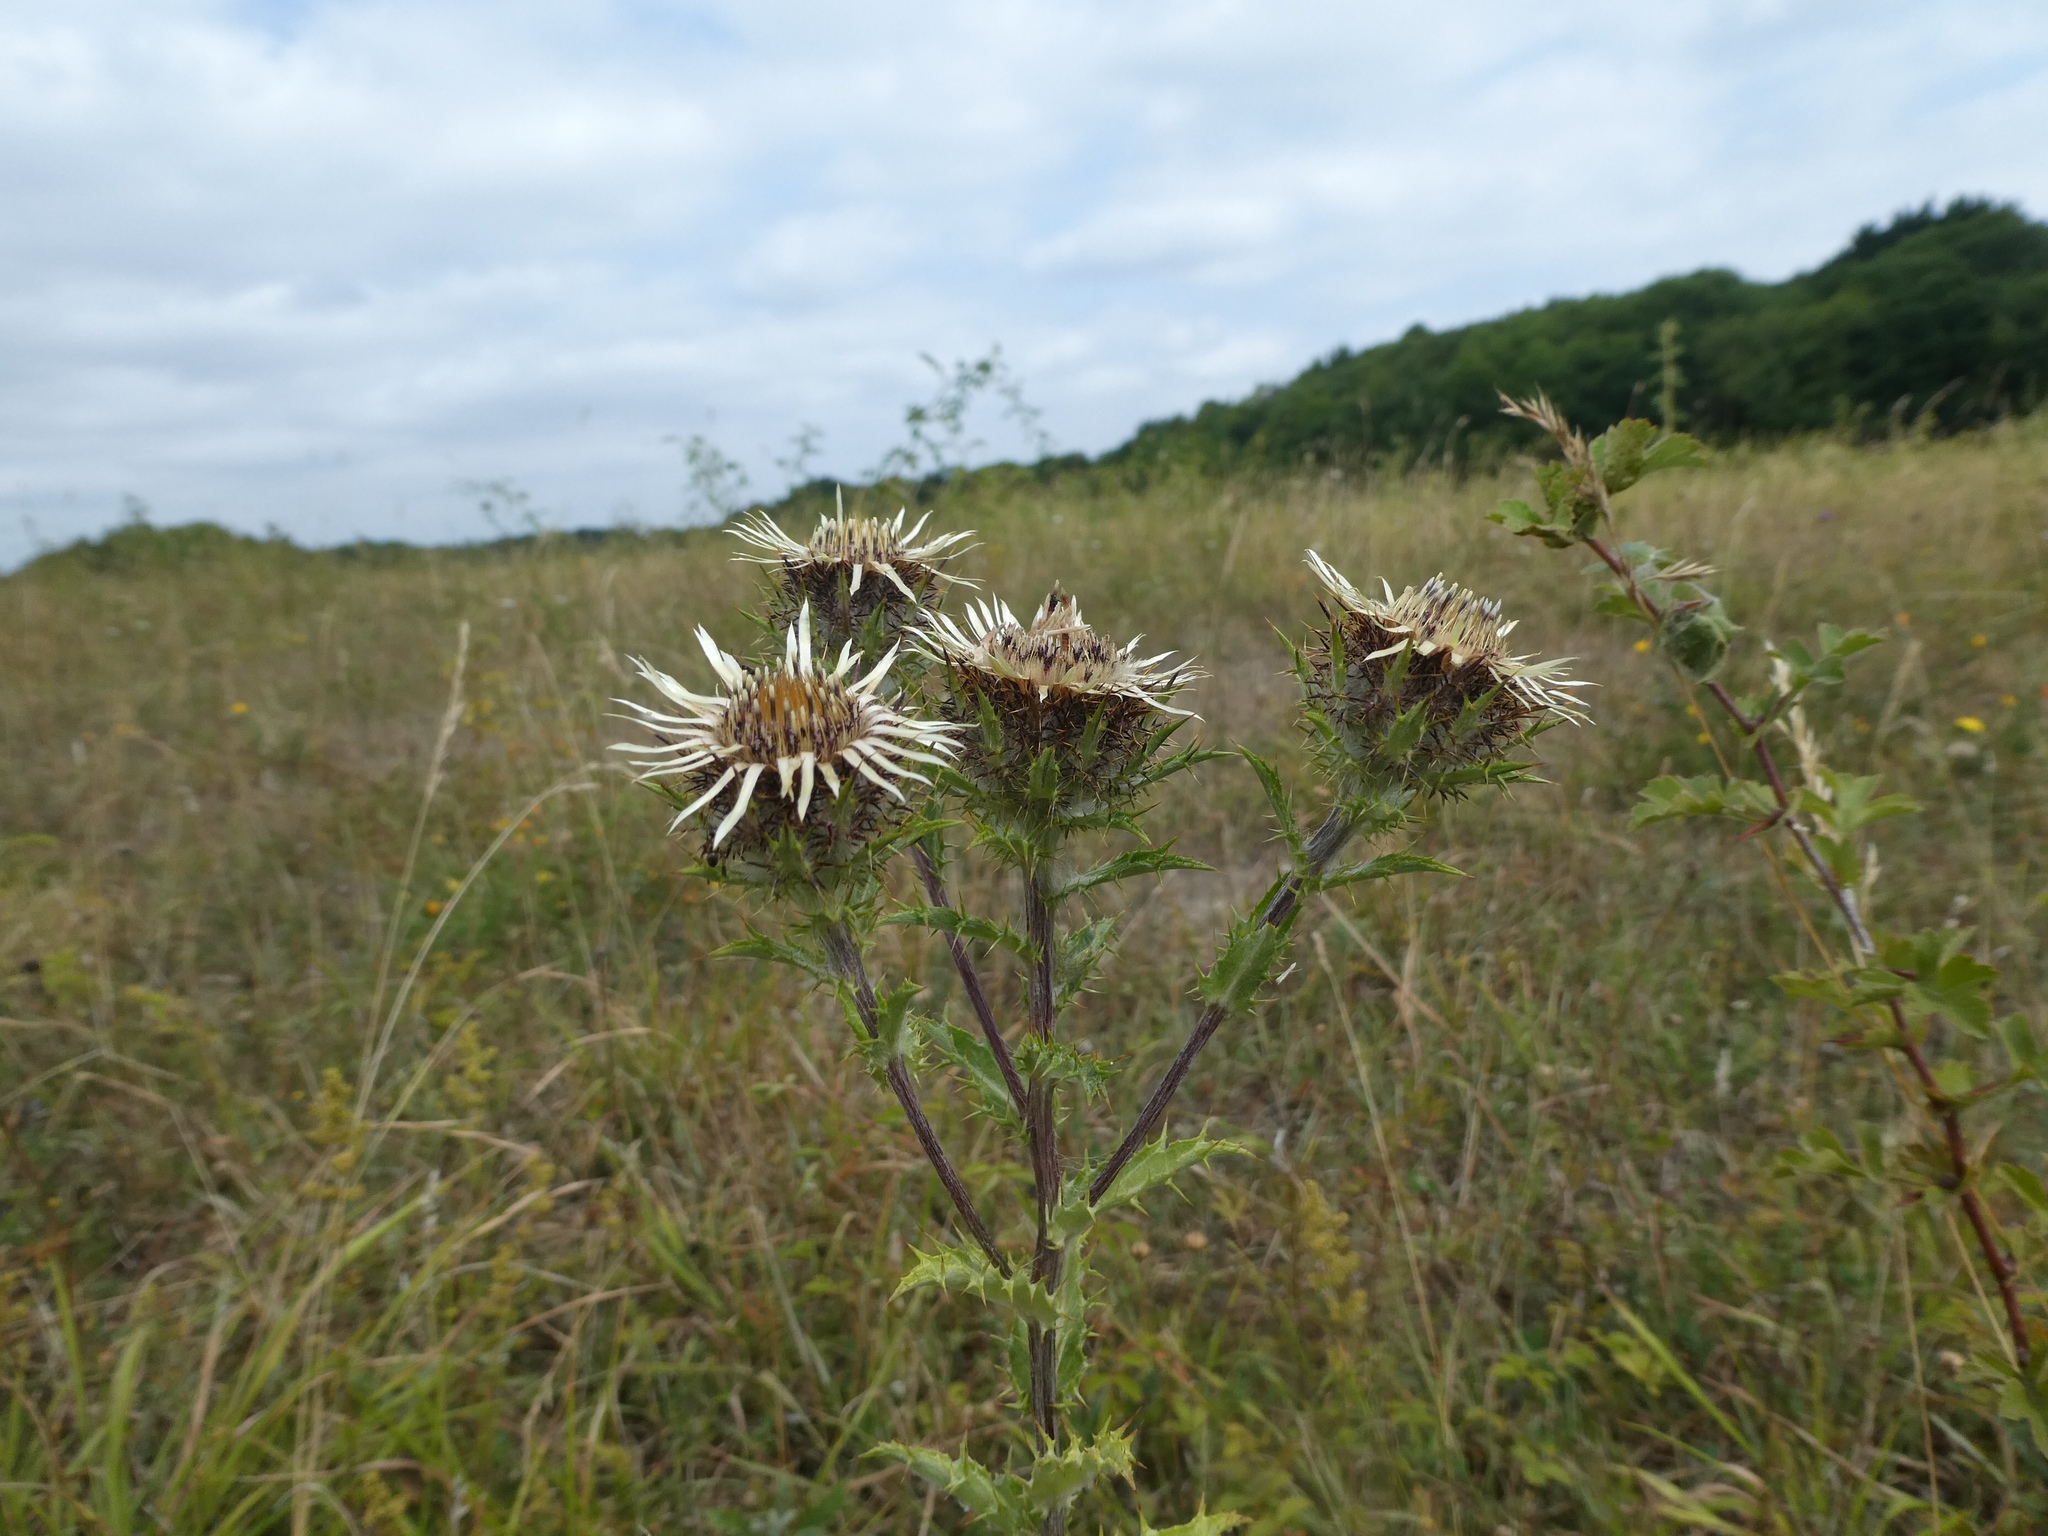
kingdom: Plantae
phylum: Tracheophyta
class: Magnoliopsida
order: Asterales
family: Asteraceae
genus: Carlina
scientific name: Carlina vulgaris
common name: Carline thistle
